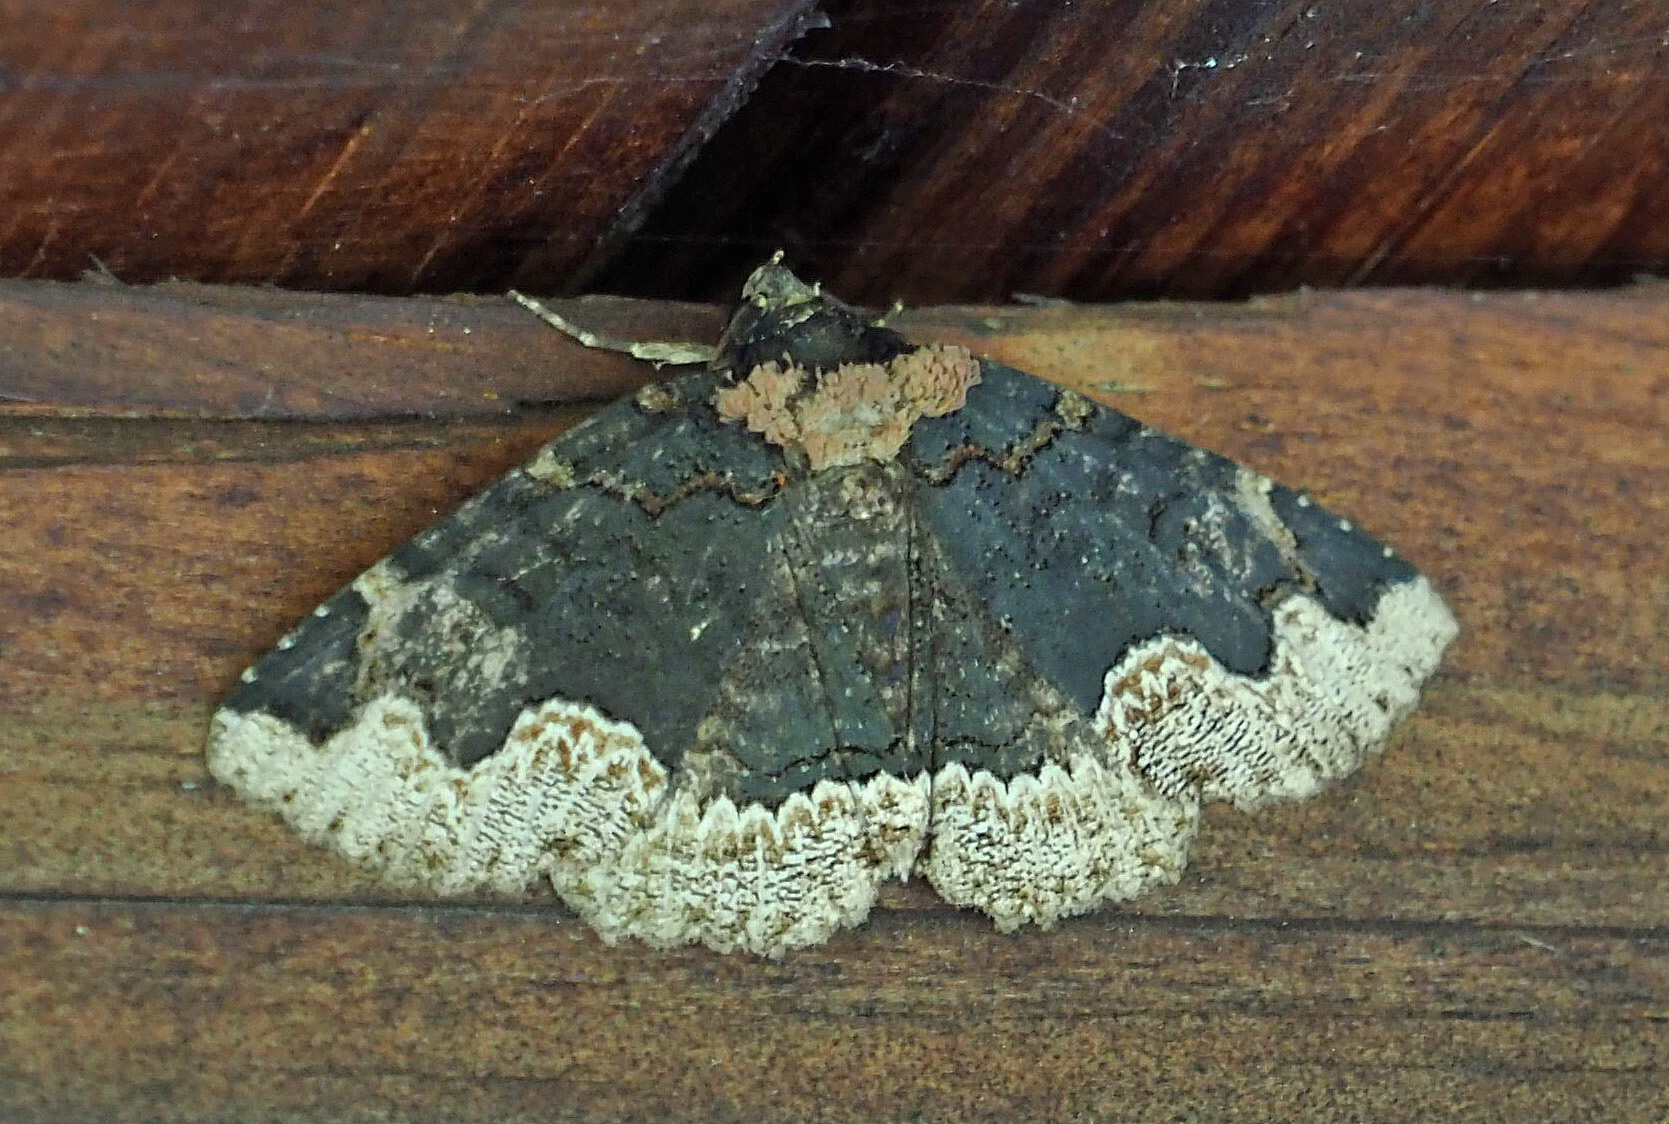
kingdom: Animalia
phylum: Arthropoda
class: Insecta
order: Lepidoptera
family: Erebidae
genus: Zale
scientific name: Zale horrida
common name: Horrid zale moth
